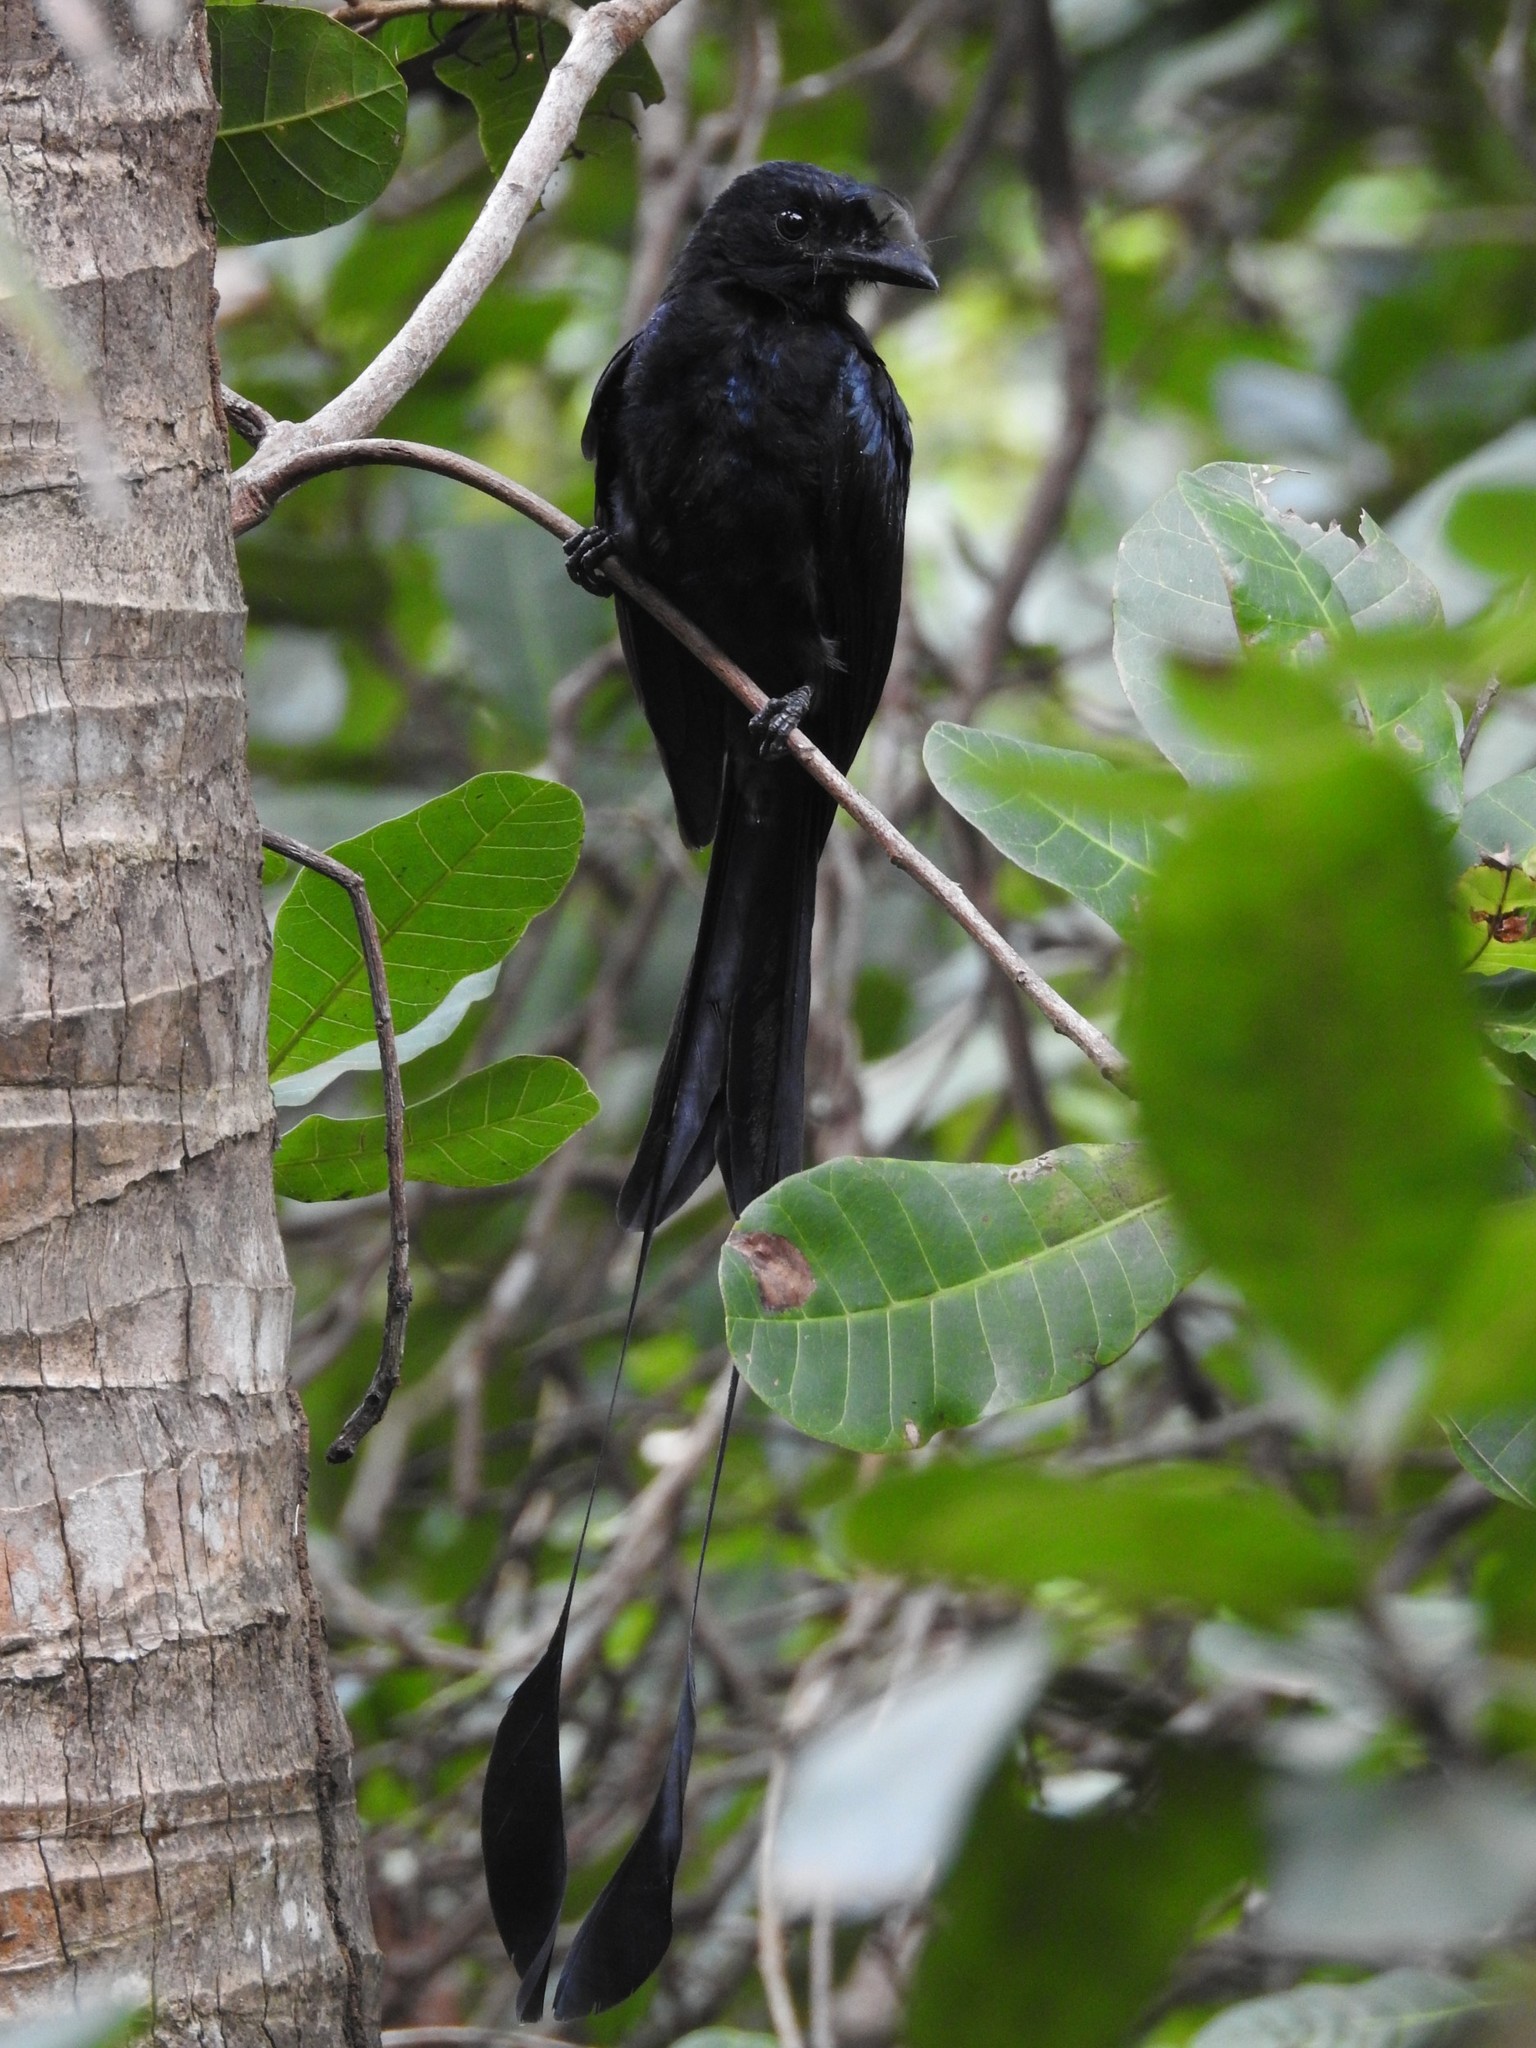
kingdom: Animalia
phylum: Chordata
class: Aves
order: Passeriformes
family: Dicruridae
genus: Dicrurus
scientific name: Dicrurus paradiseus
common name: Greater racket-tailed drongo
